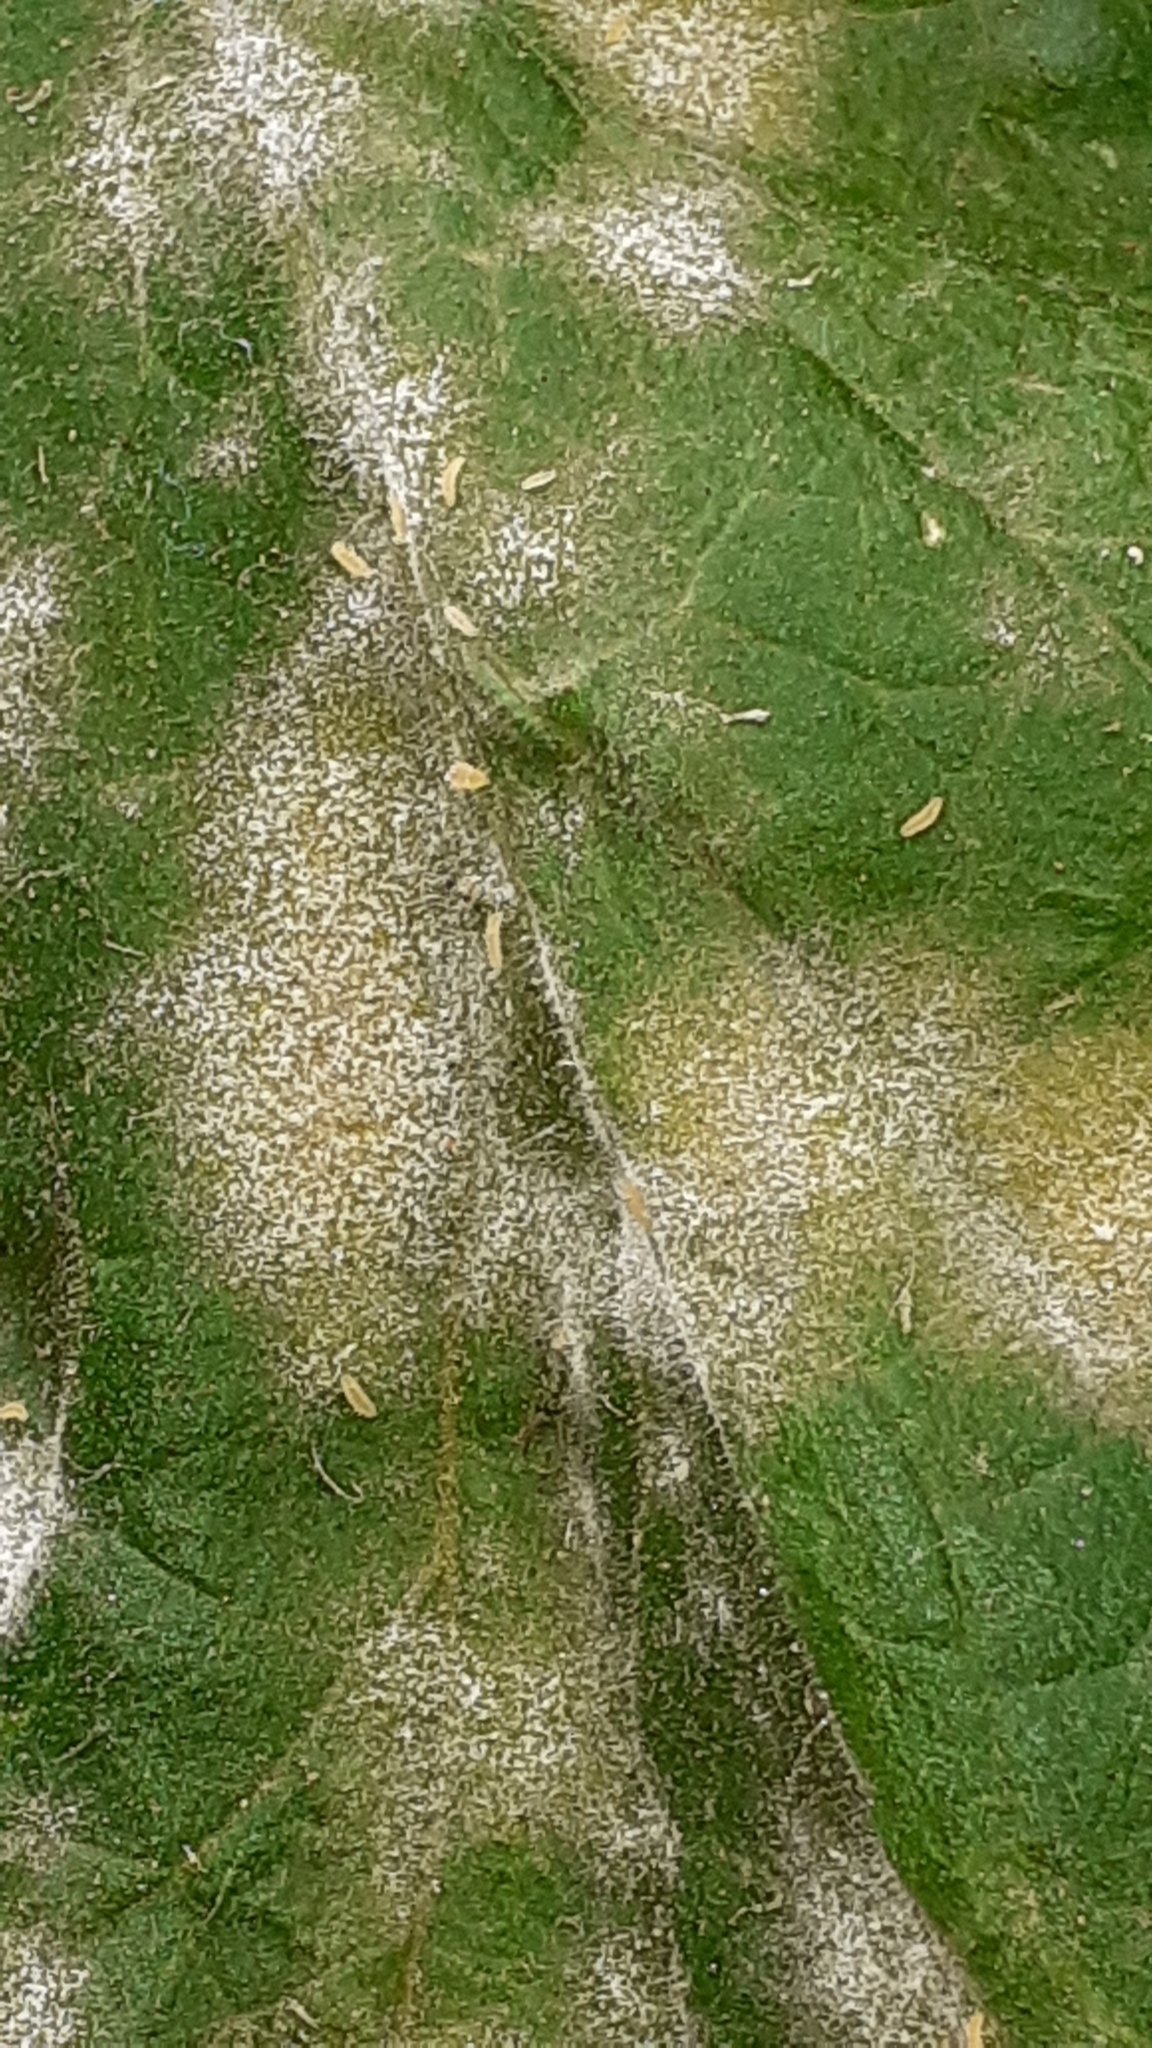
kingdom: Plantae
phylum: Tracheophyta
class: Magnoliopsida
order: Solanales
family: Solanaceae
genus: Solanum
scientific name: Solanum lycopersicum
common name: Garden tomato
